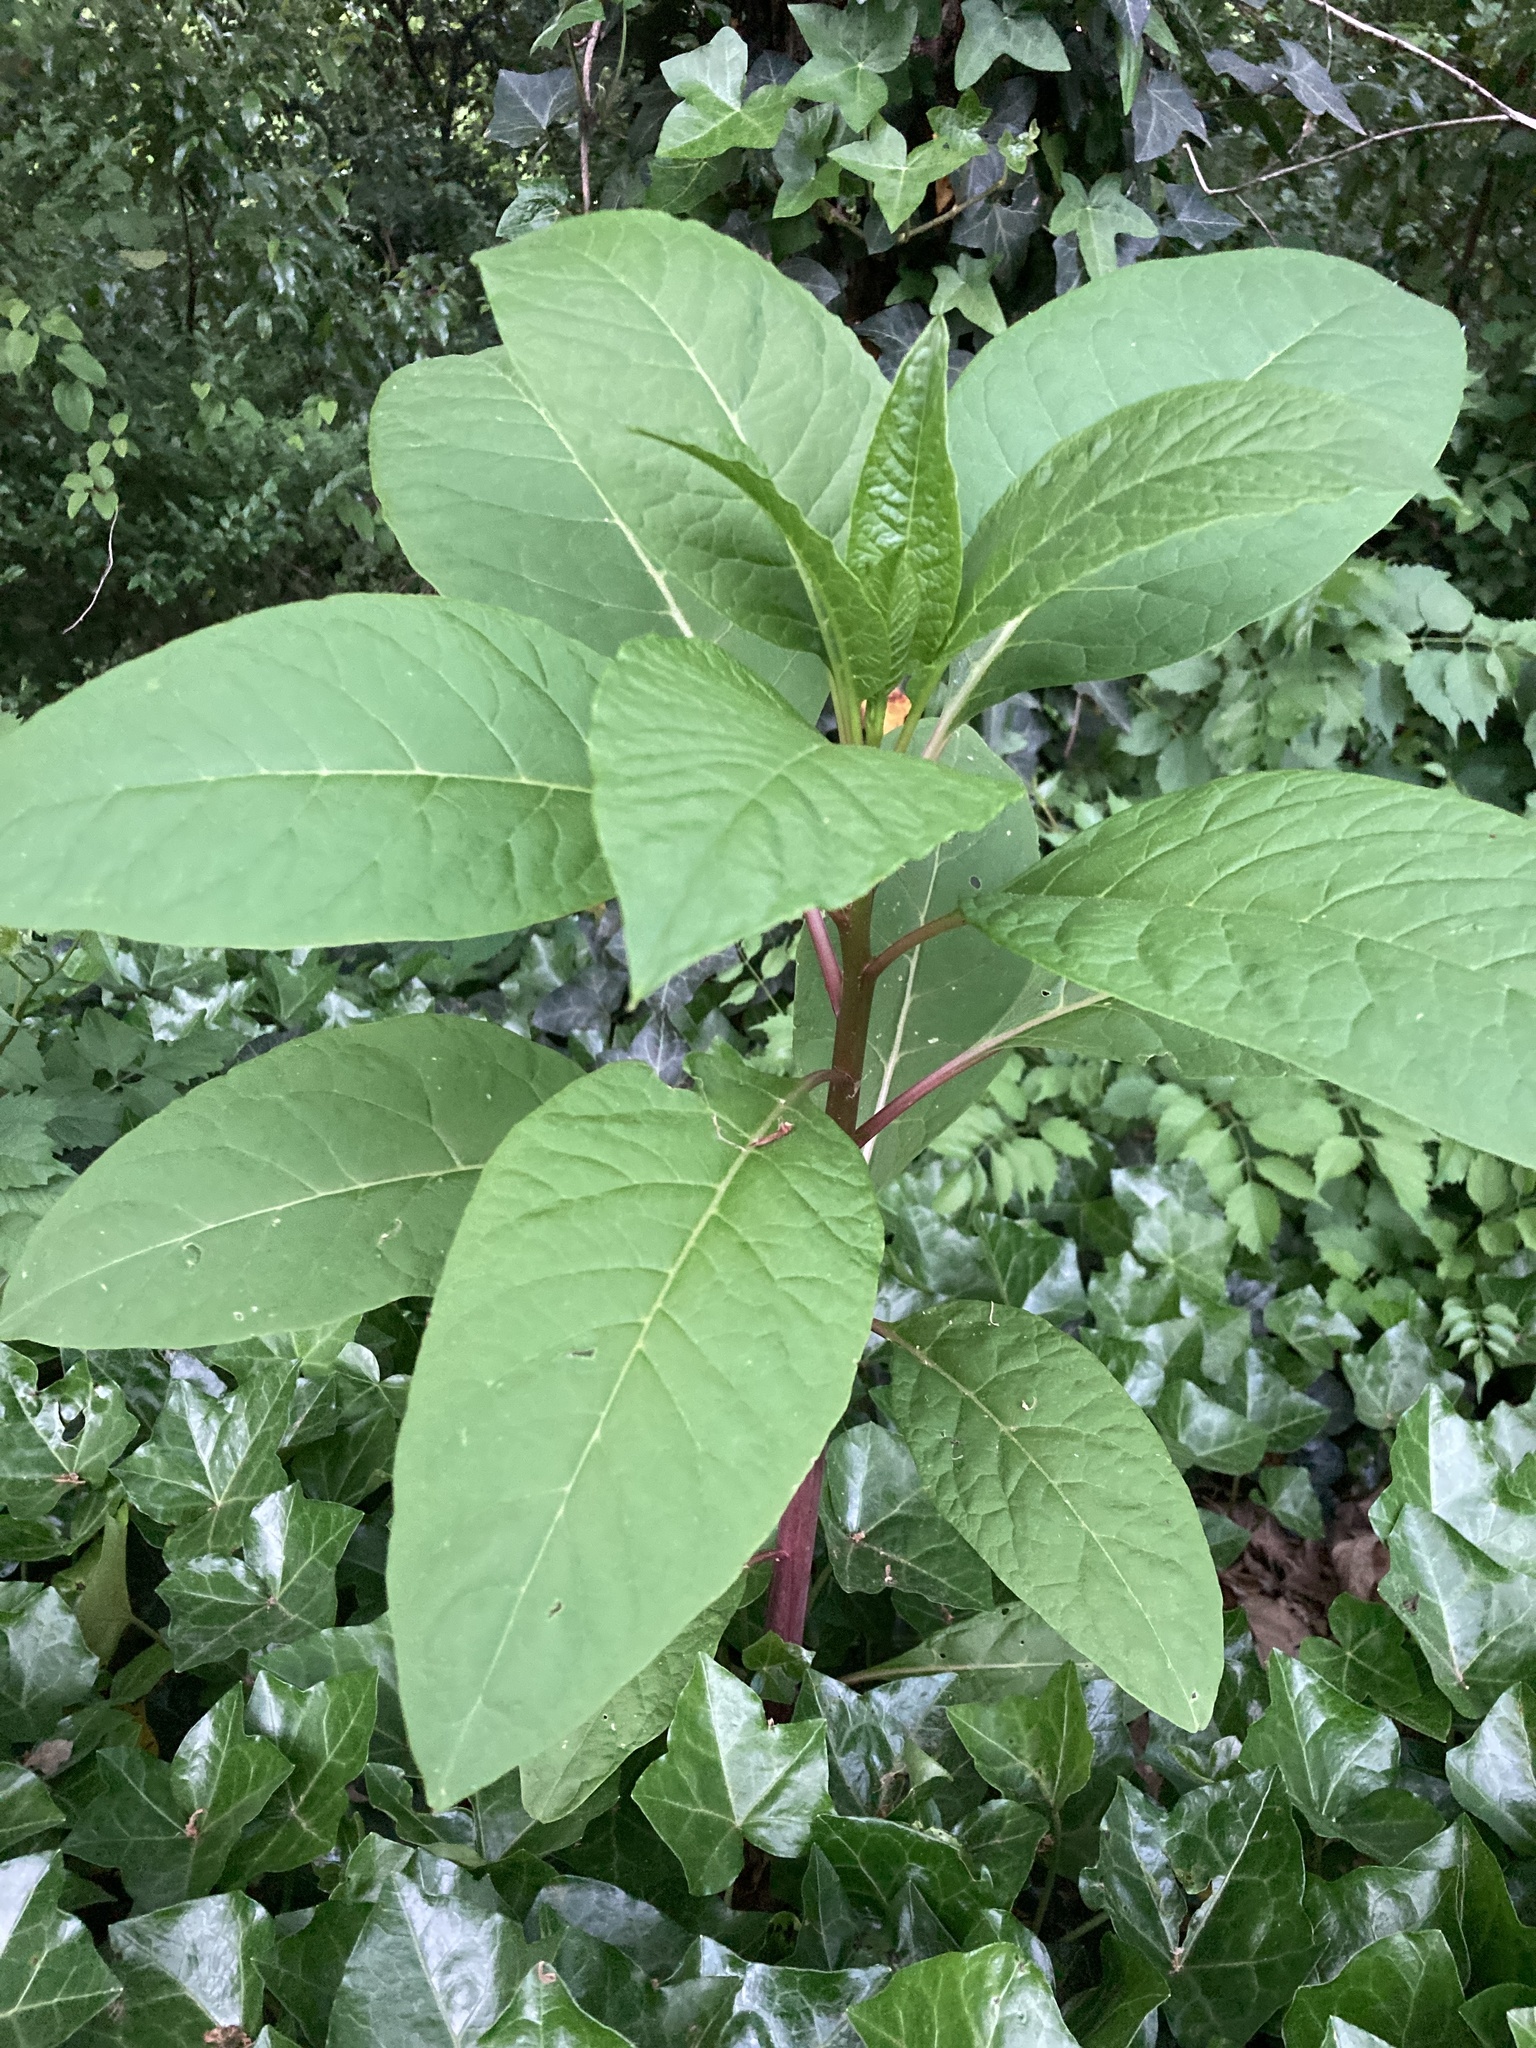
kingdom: Plantae
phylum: Tracheophyta
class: Magnoliopsida
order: Caryophyllales
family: Phytolaccaceae
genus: Phytolacca
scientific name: Phytolacca americana
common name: American pokeweed
